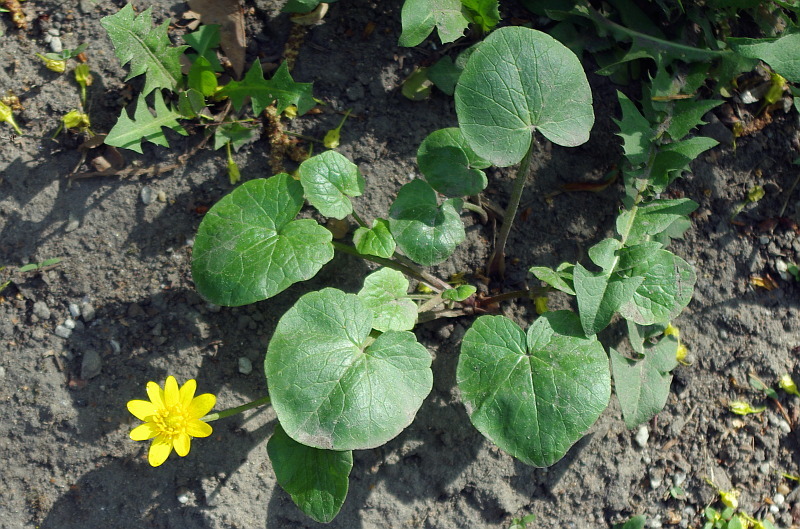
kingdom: Plantae
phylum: Tracheophyta
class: Magnoliopsida
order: Ranunculales
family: Ranunculaceae
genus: Ficaria
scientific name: Ficaria verna
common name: Lesser celandine
